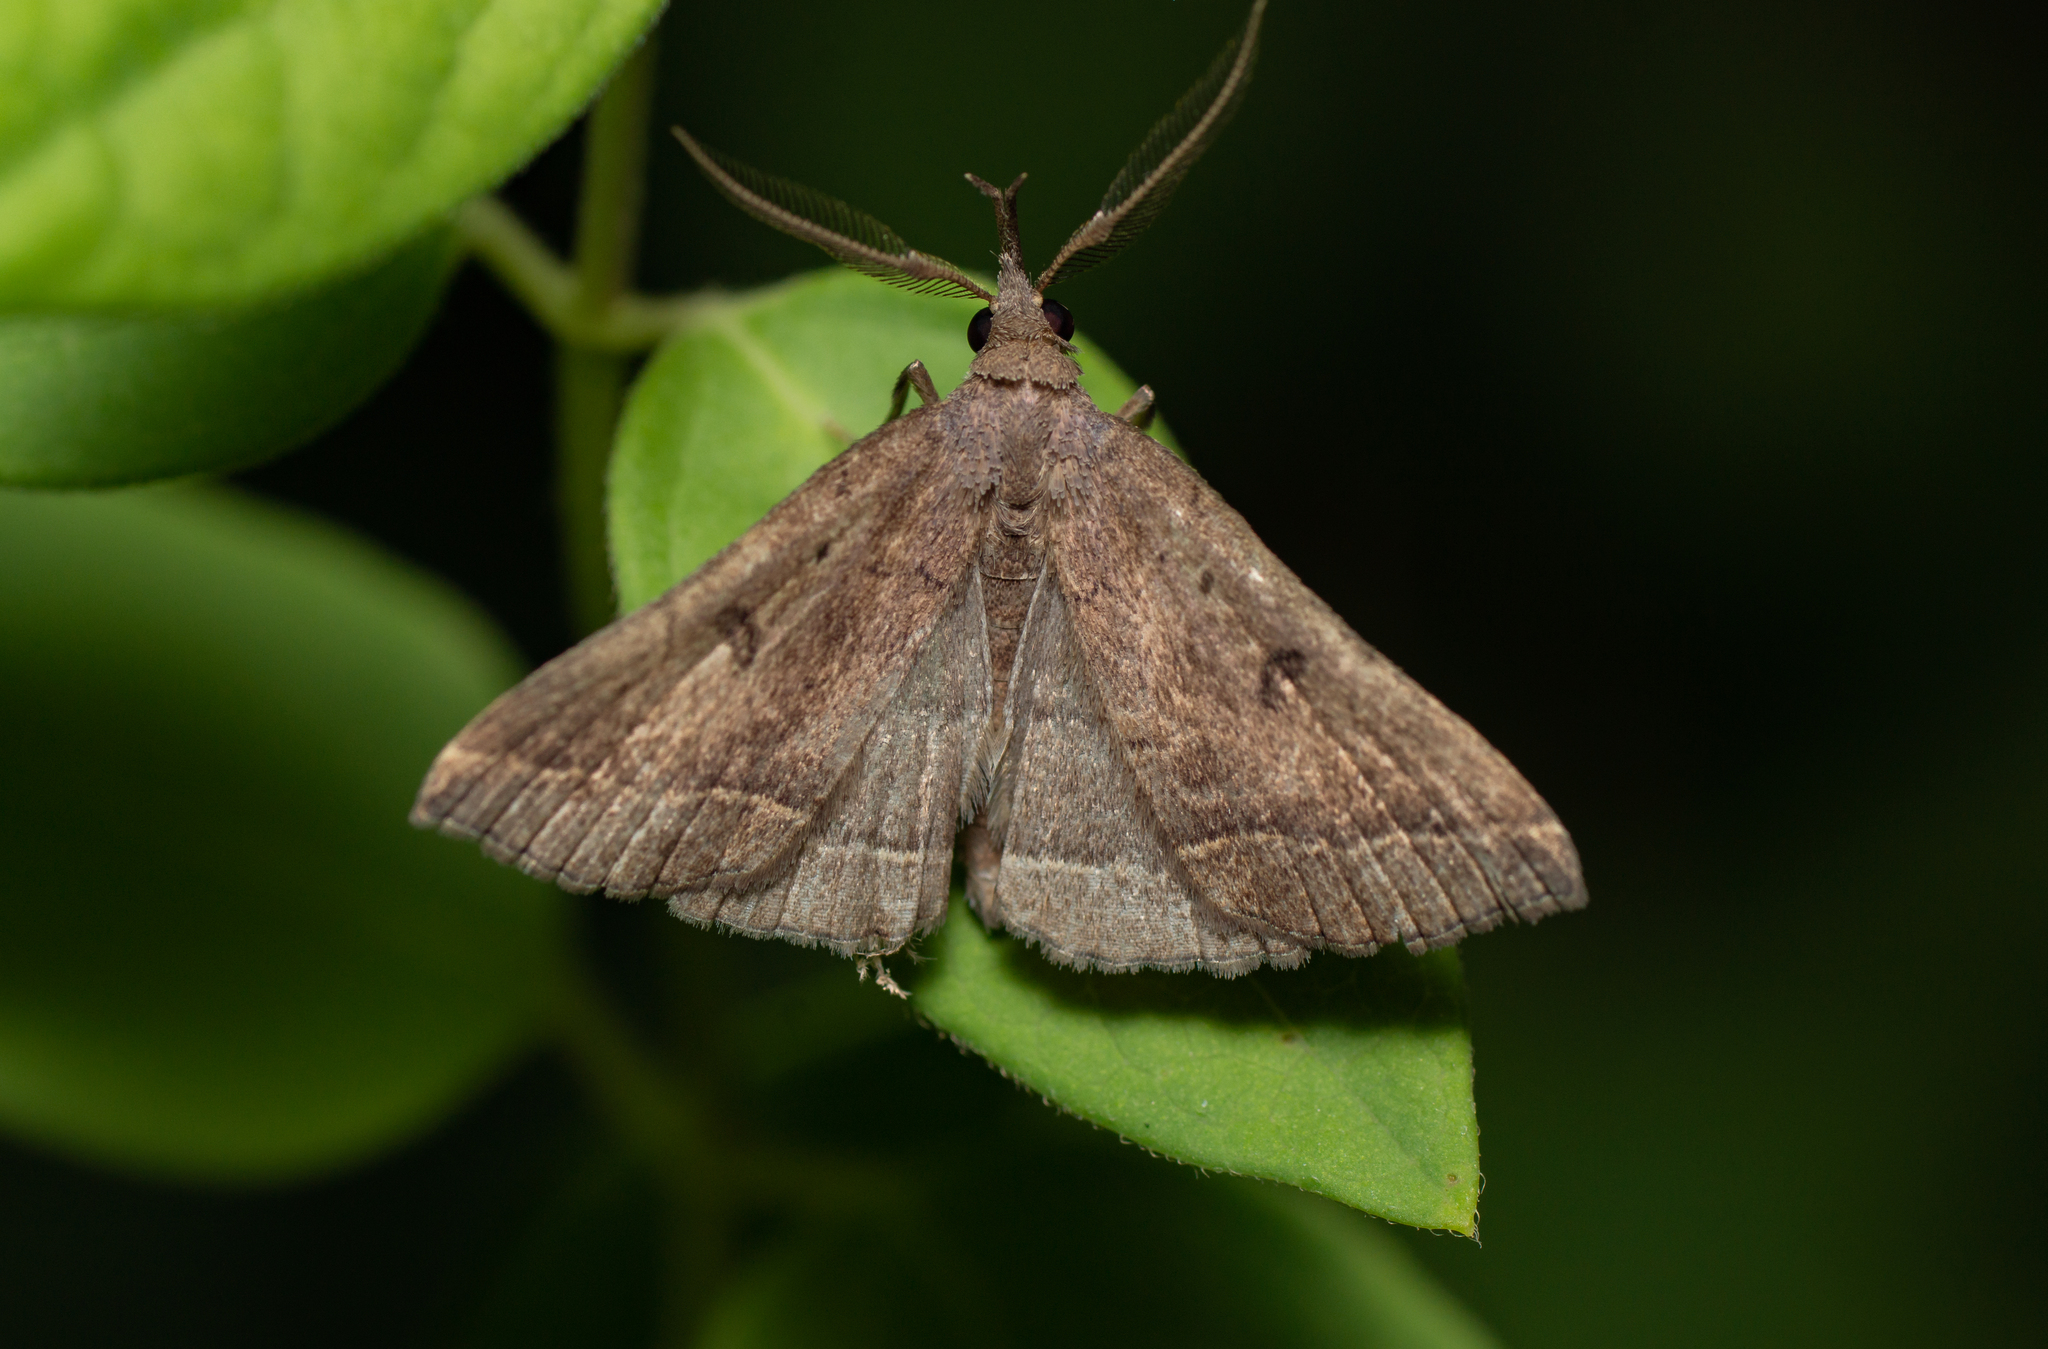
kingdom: Animalia
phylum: Arthropoda
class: Insecta
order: Lepidoptera
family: Erebidae
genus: Pechipogo
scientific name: Pechipogo plumigeralis
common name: Plumed fan-foot
